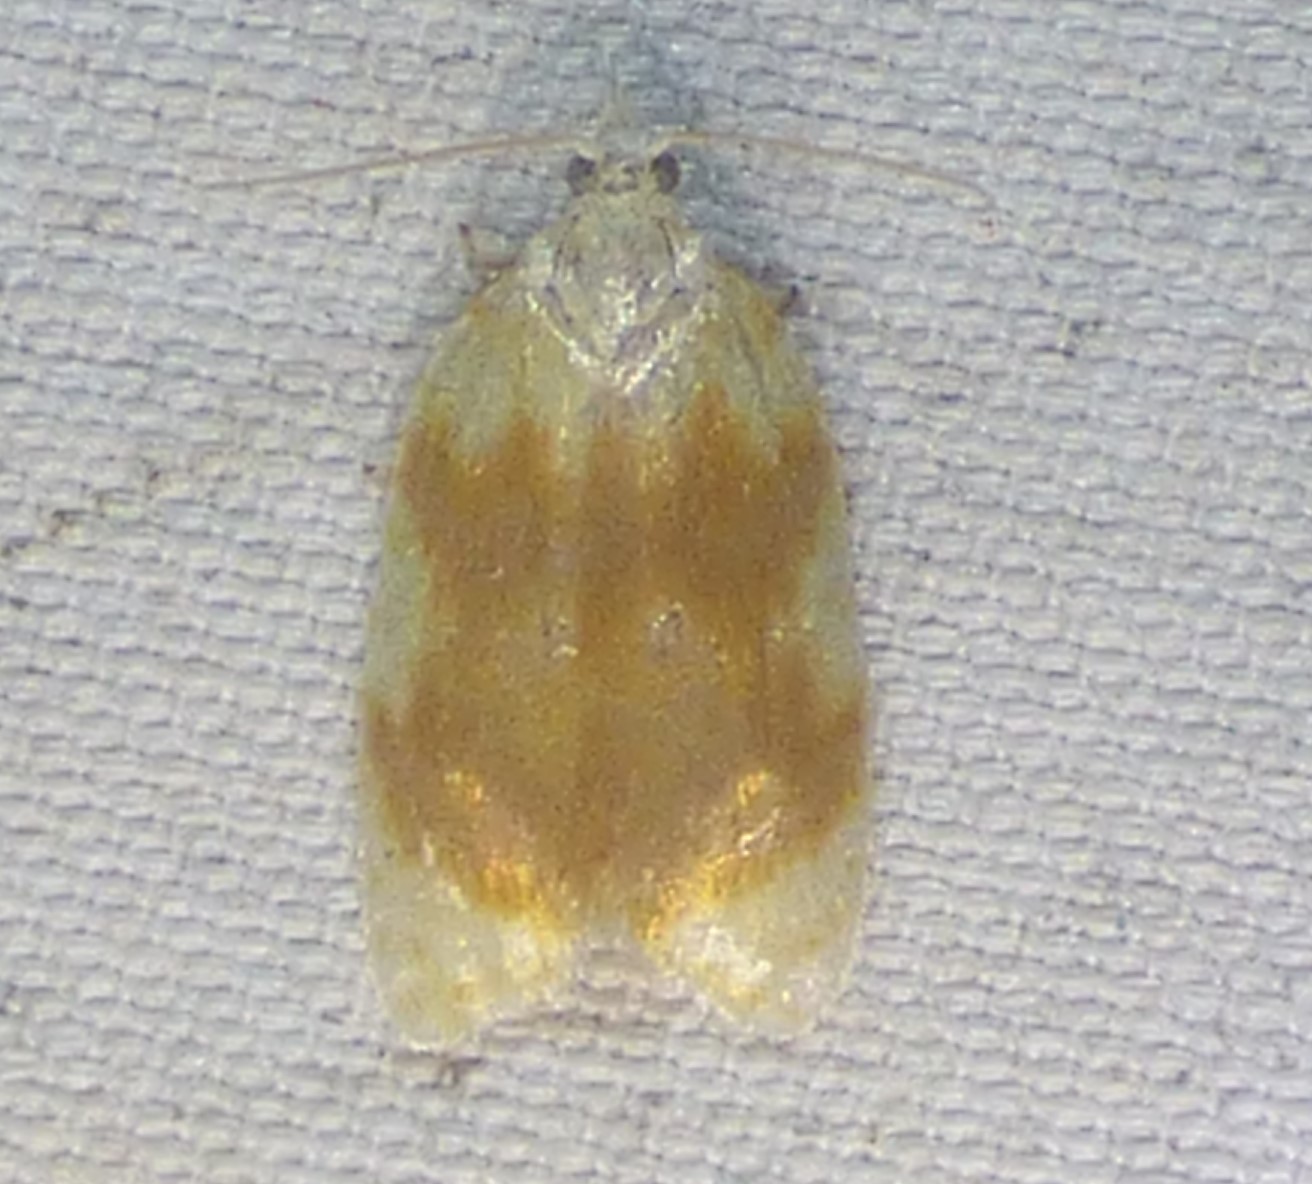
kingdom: Animalia
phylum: Arthropoda
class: Insecta
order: Lepidoptera
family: Tortricidae
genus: Acleris
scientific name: Acleris semipurpurana
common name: Oak leaftier moth
